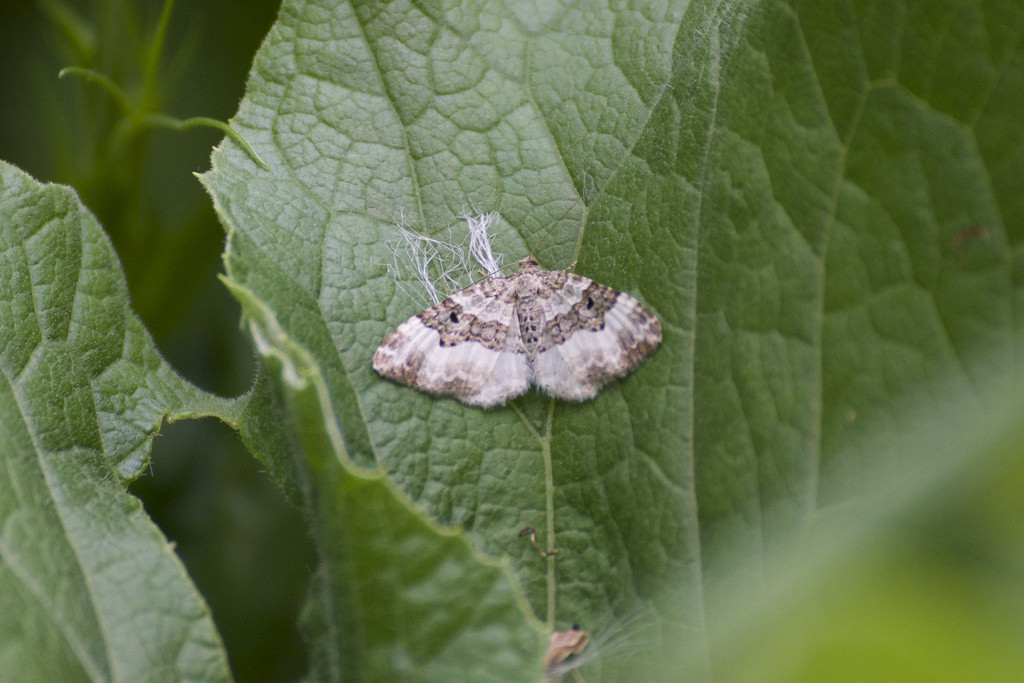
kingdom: Animalia
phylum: Arthropoda
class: Insecta
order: Lepidoptera
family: Geometridae
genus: Epirrhoe
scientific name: Epirrhoe alternata
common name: Common carpet
